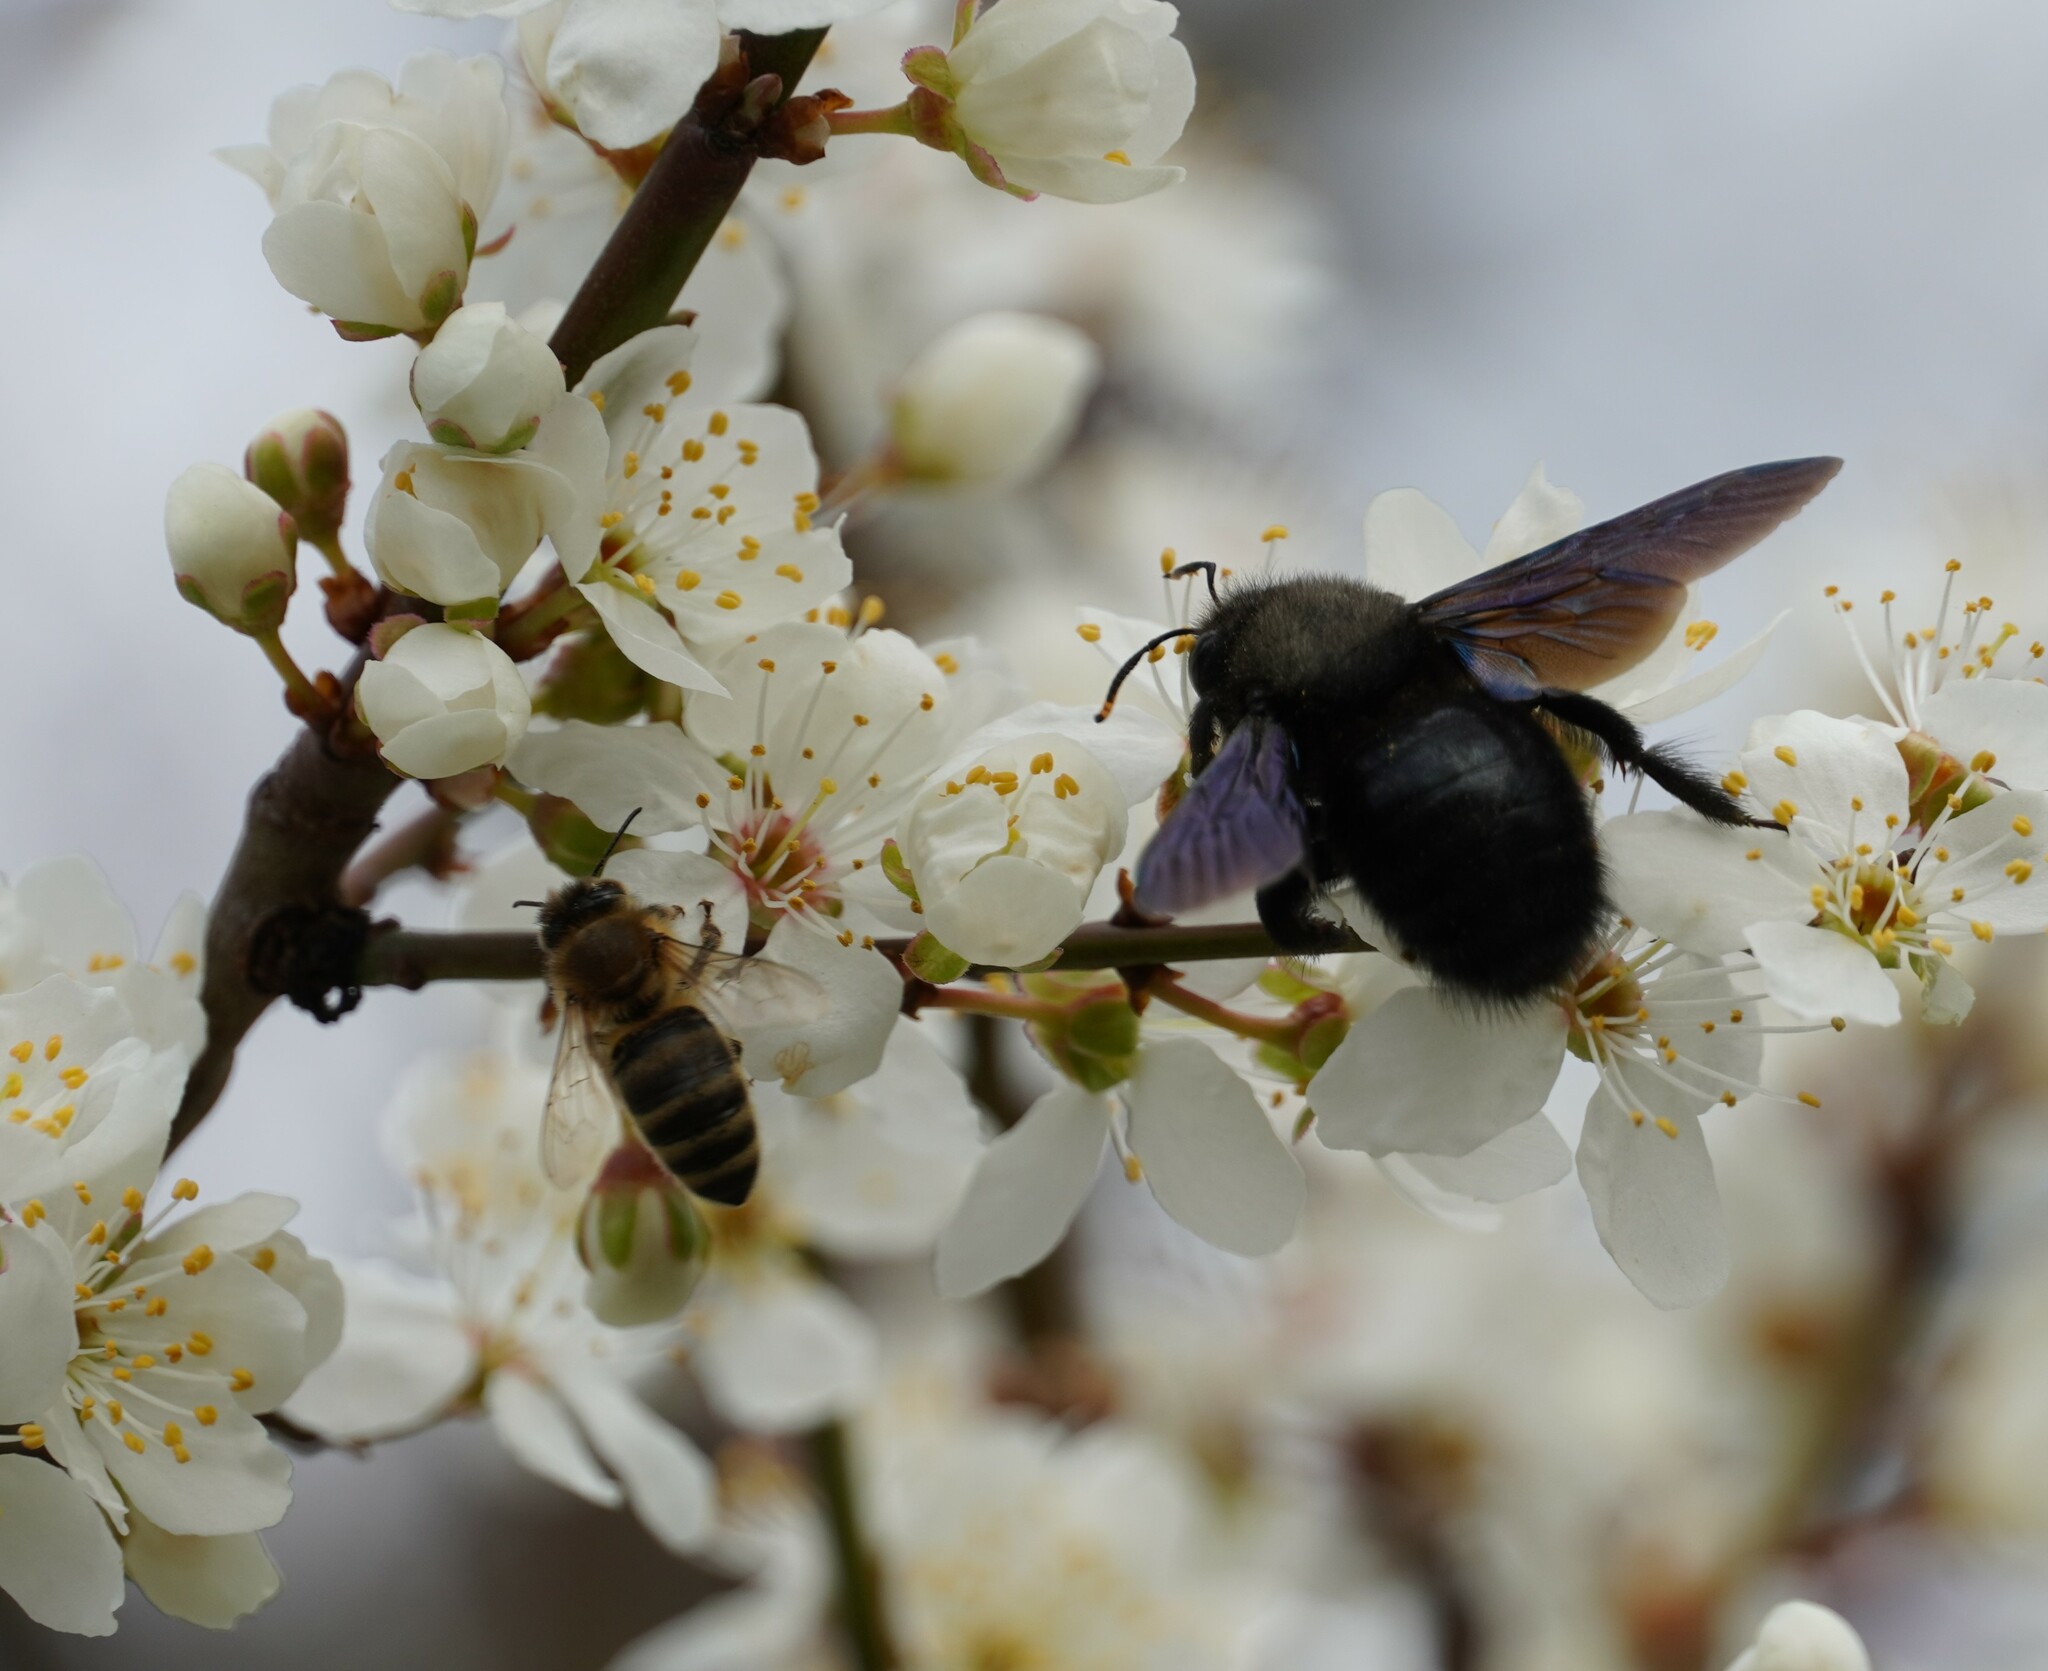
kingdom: Animalia
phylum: Arthropoda
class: Insecta
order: Hymenoptera
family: Apidae
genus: Xylocopa
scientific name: Xylocopa violacea
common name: Violet carpenter bee
